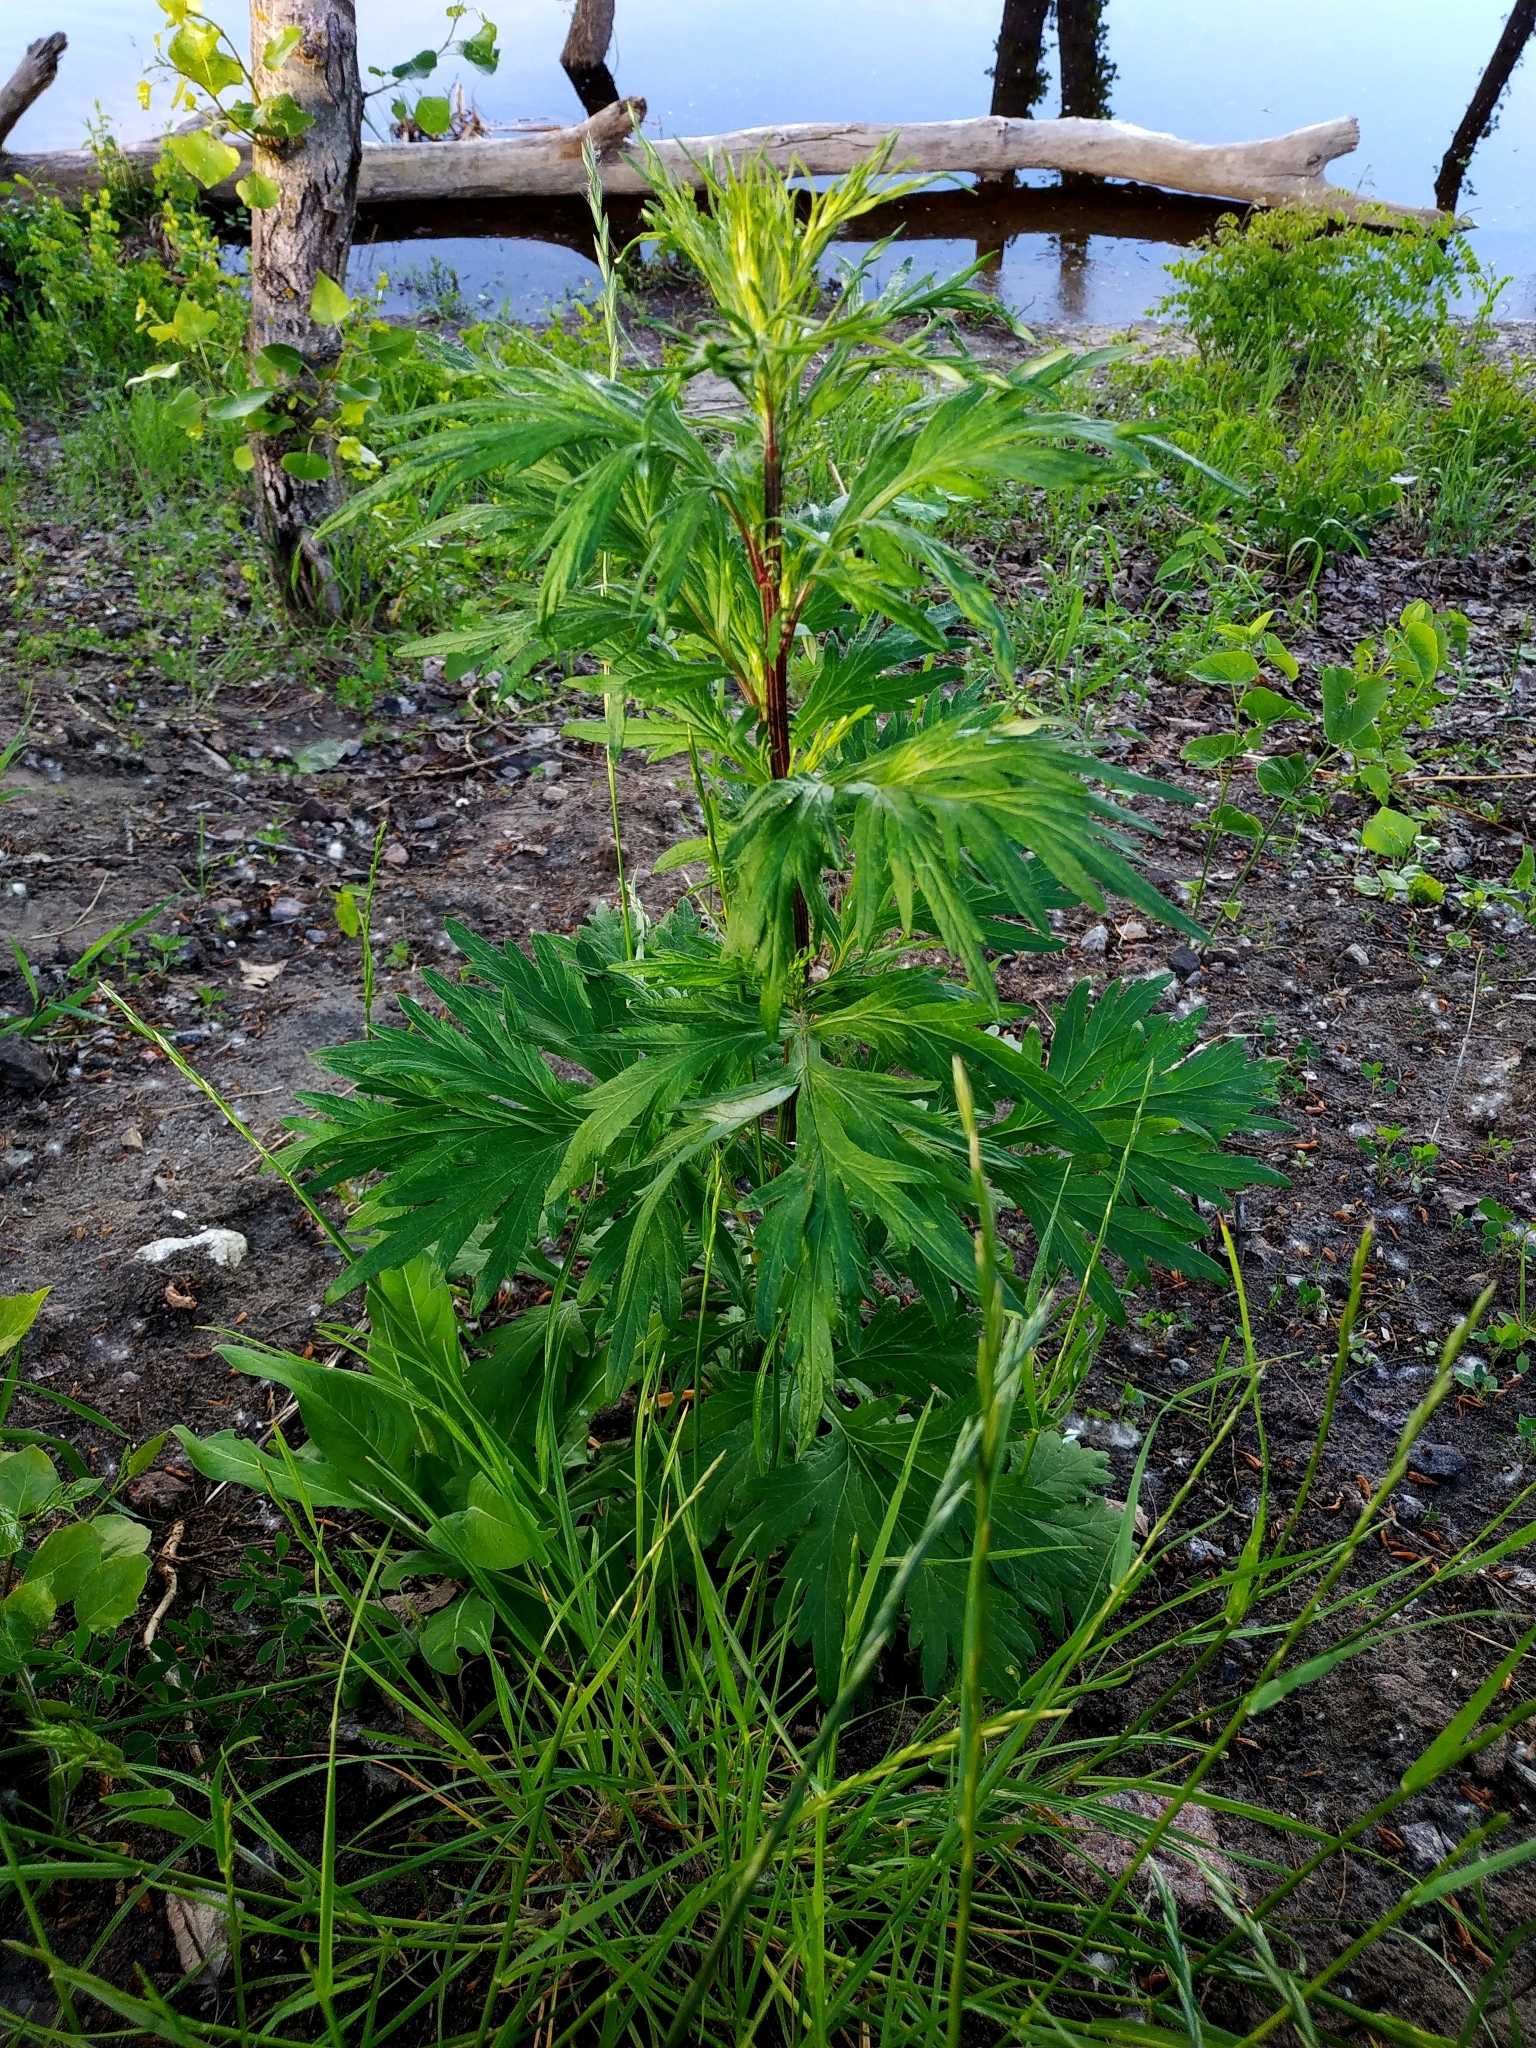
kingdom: Plantae
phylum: Tracheophyta
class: Magnoliopsida
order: Asterales
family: Asteraceae
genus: Artemisia
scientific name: Artemisia vulgaris
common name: Mugwort
